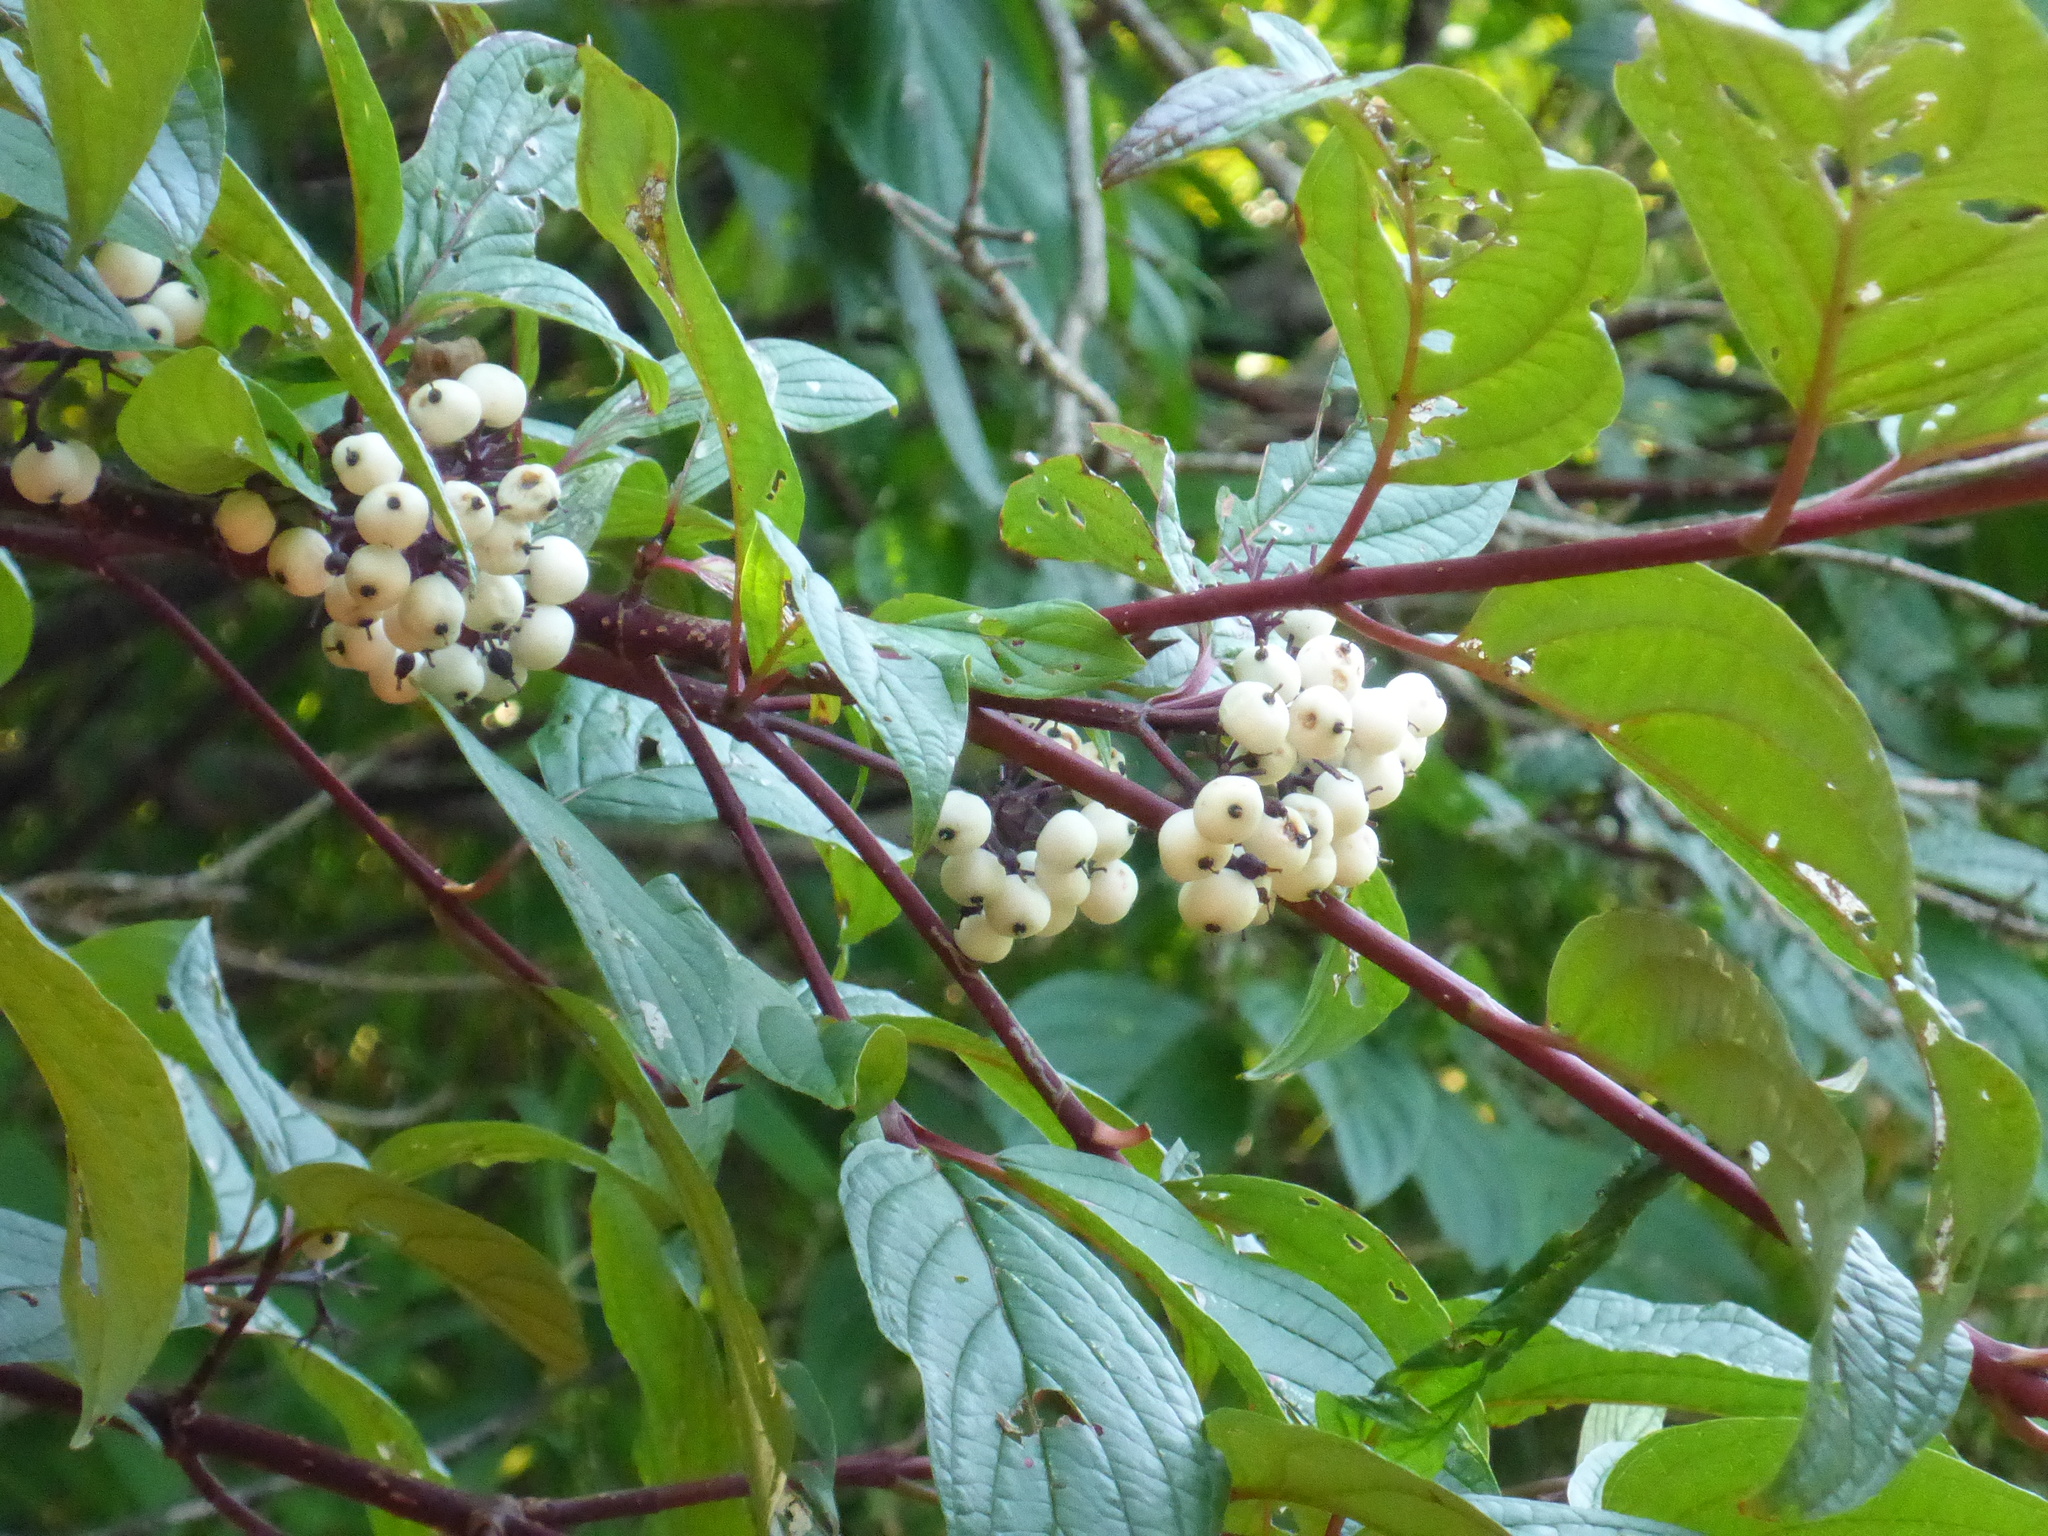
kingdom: Plantae
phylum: Tracheophyta
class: Magnoliopsida
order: Cornales
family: Cornaceae
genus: Cornus
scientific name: Cornus sericea
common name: Red-osier dogwood
